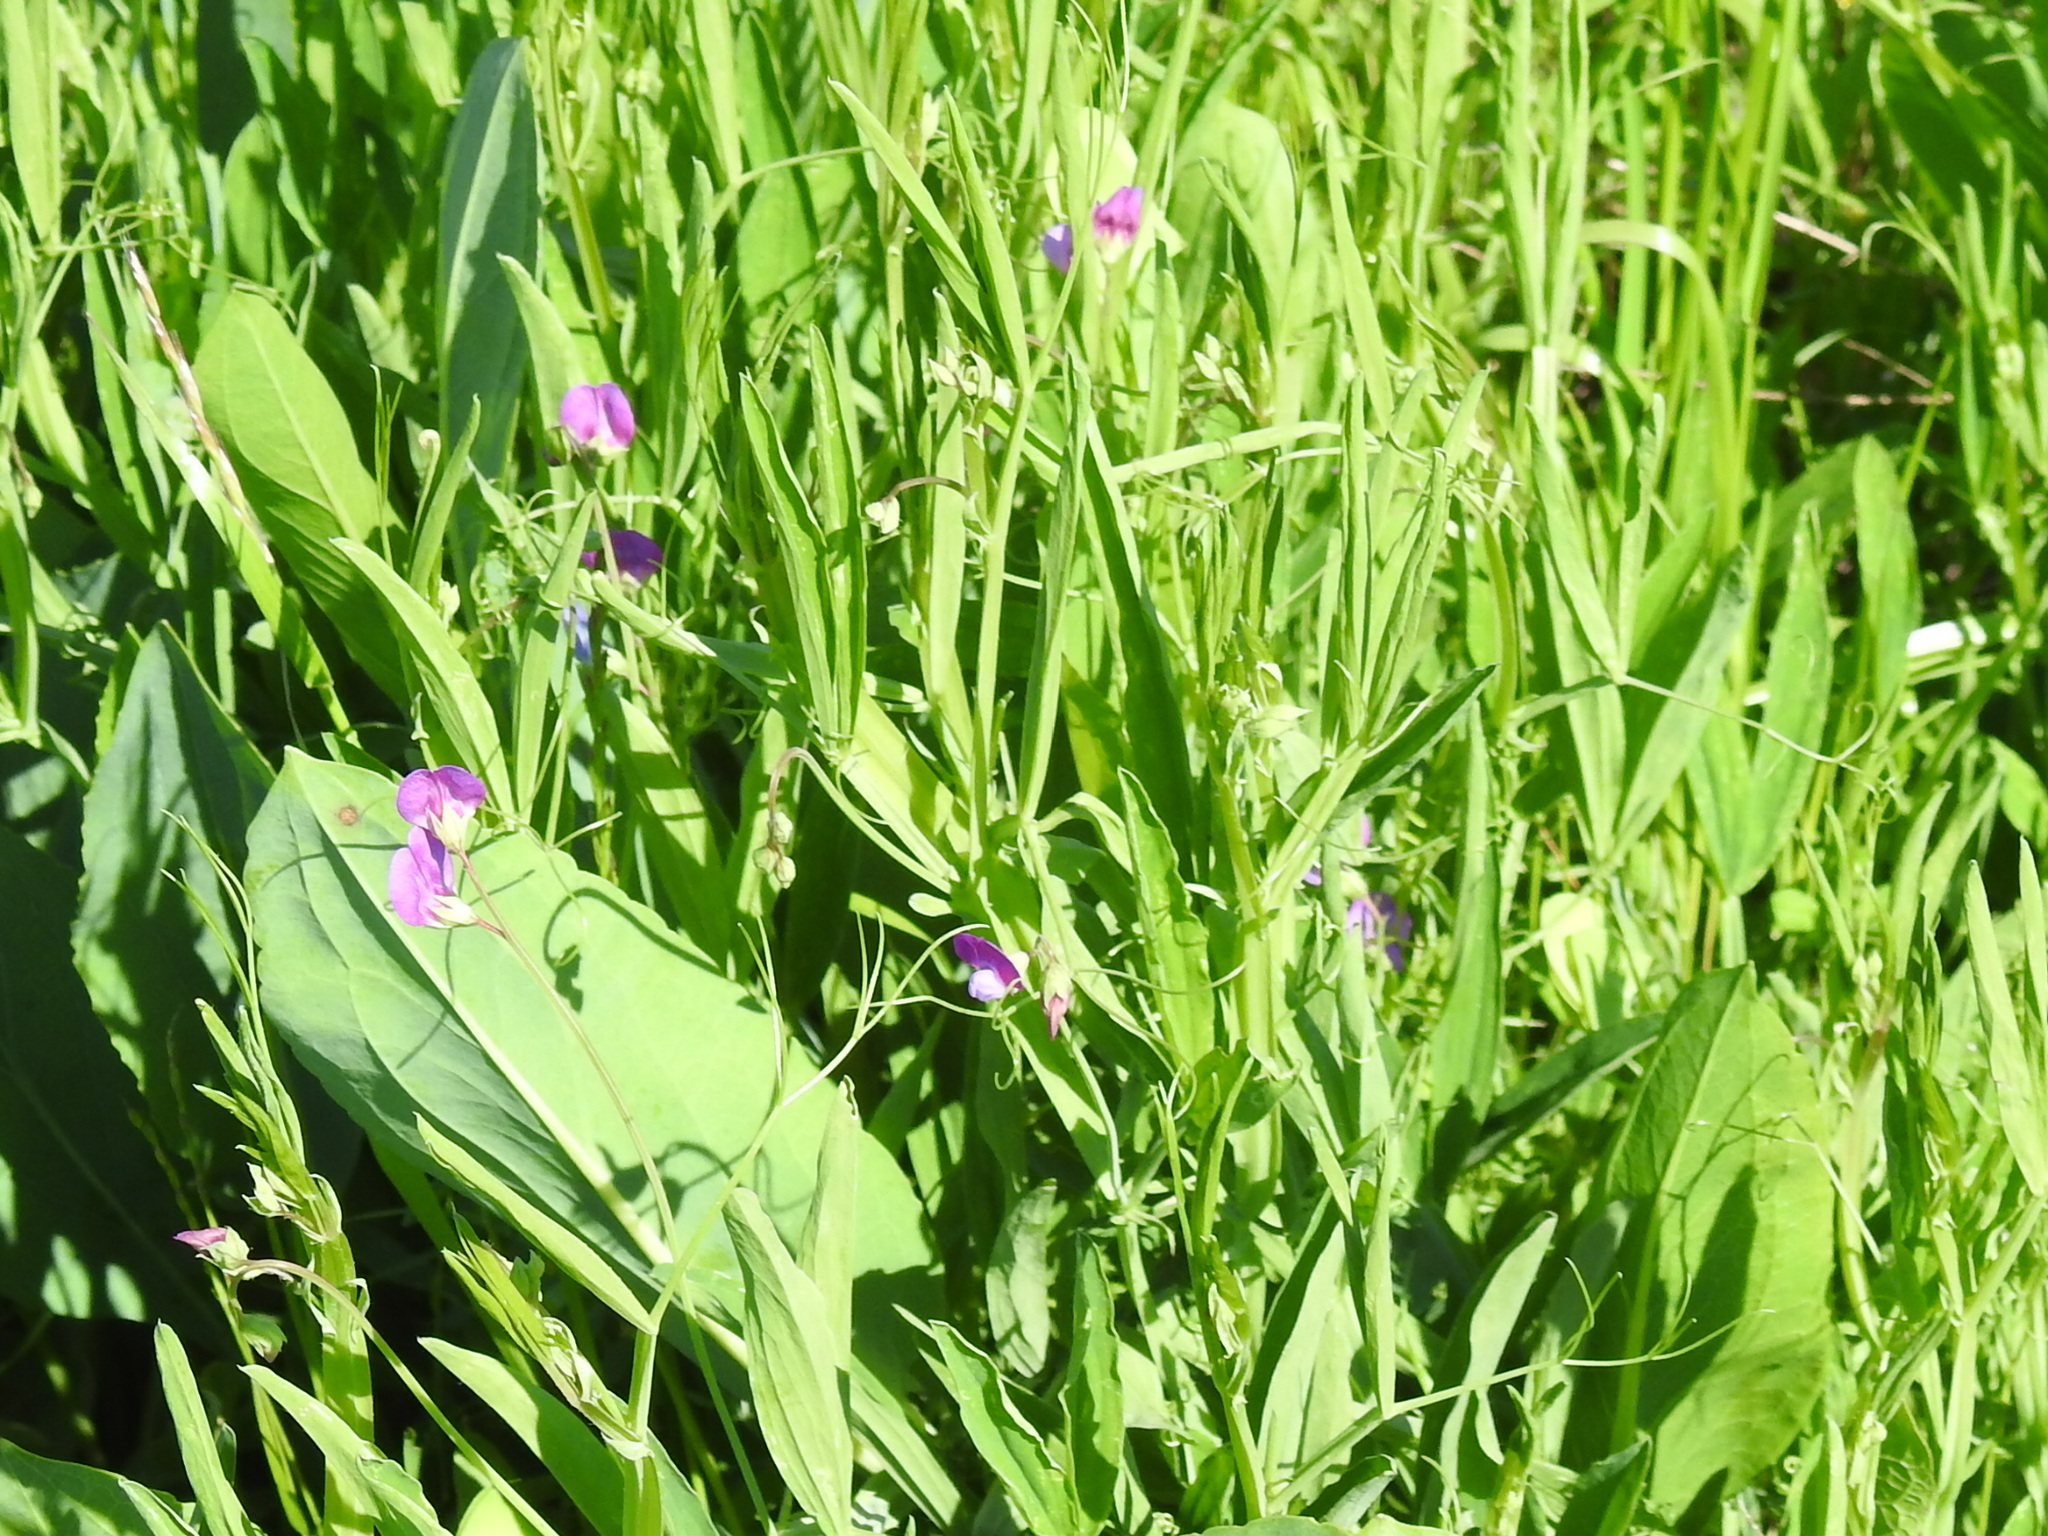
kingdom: Plantae
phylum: Tracheophyta
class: Magnoliopsida
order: Fabales
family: Fabaceae
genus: Lathyrus
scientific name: Lathyrus hirsutus
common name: Hairy vetchling
